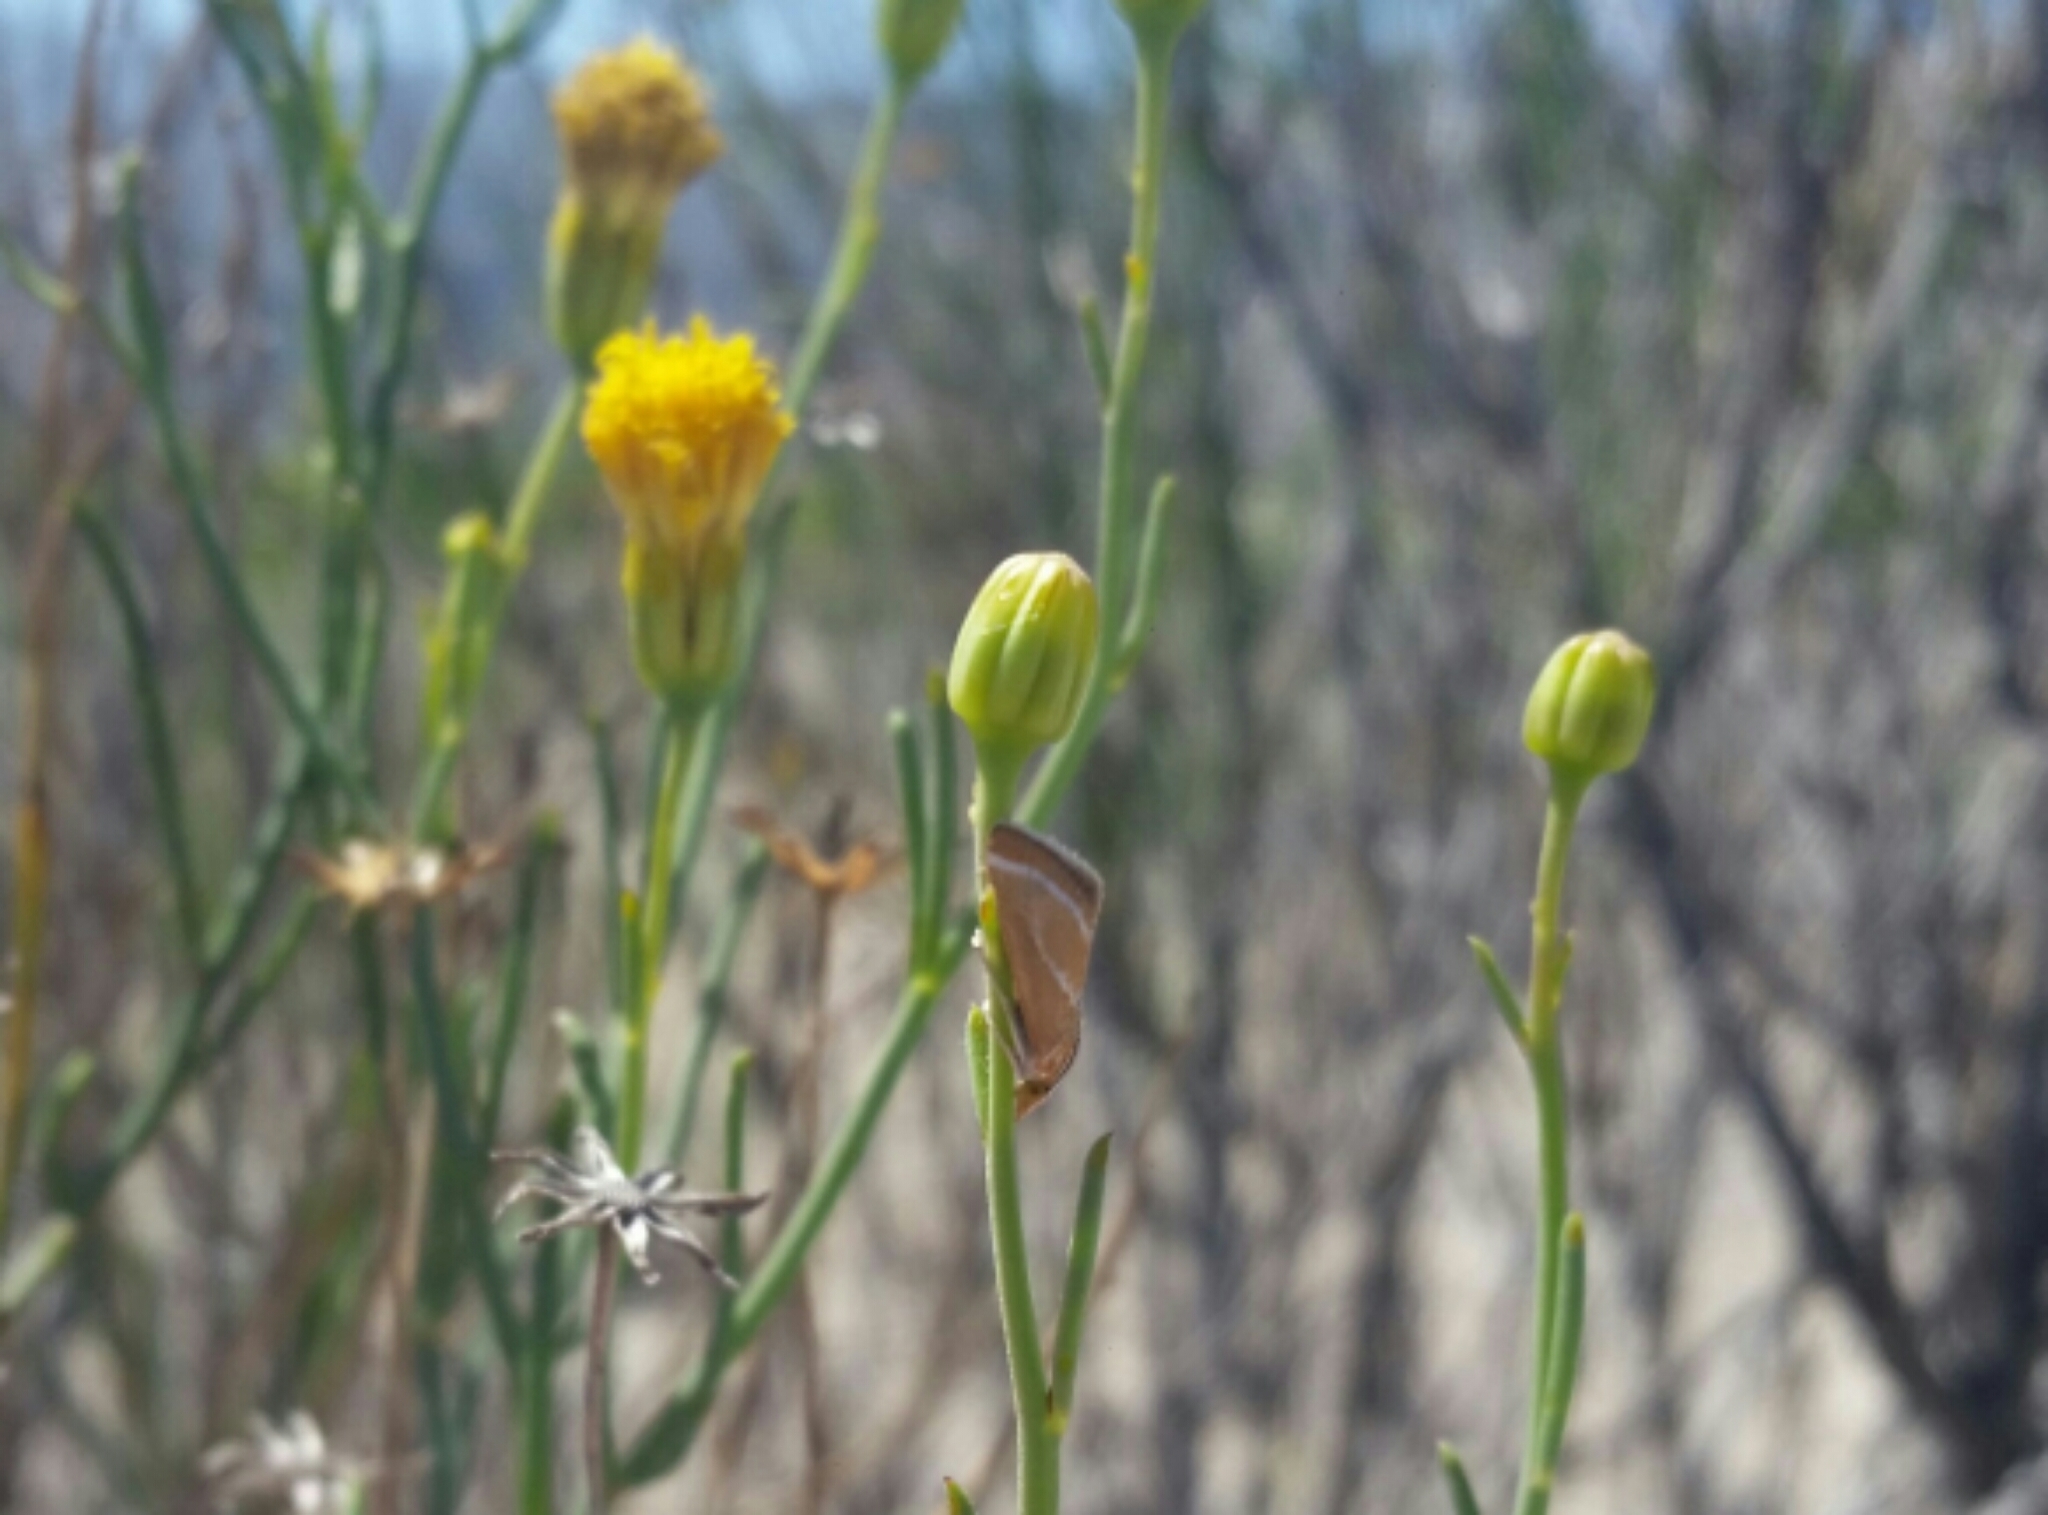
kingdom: Animalia
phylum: Arthropoda
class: Insecta
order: Lepidoptera
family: Crambidae
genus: Rhodocantha
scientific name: Rhodocantha diagonalis
